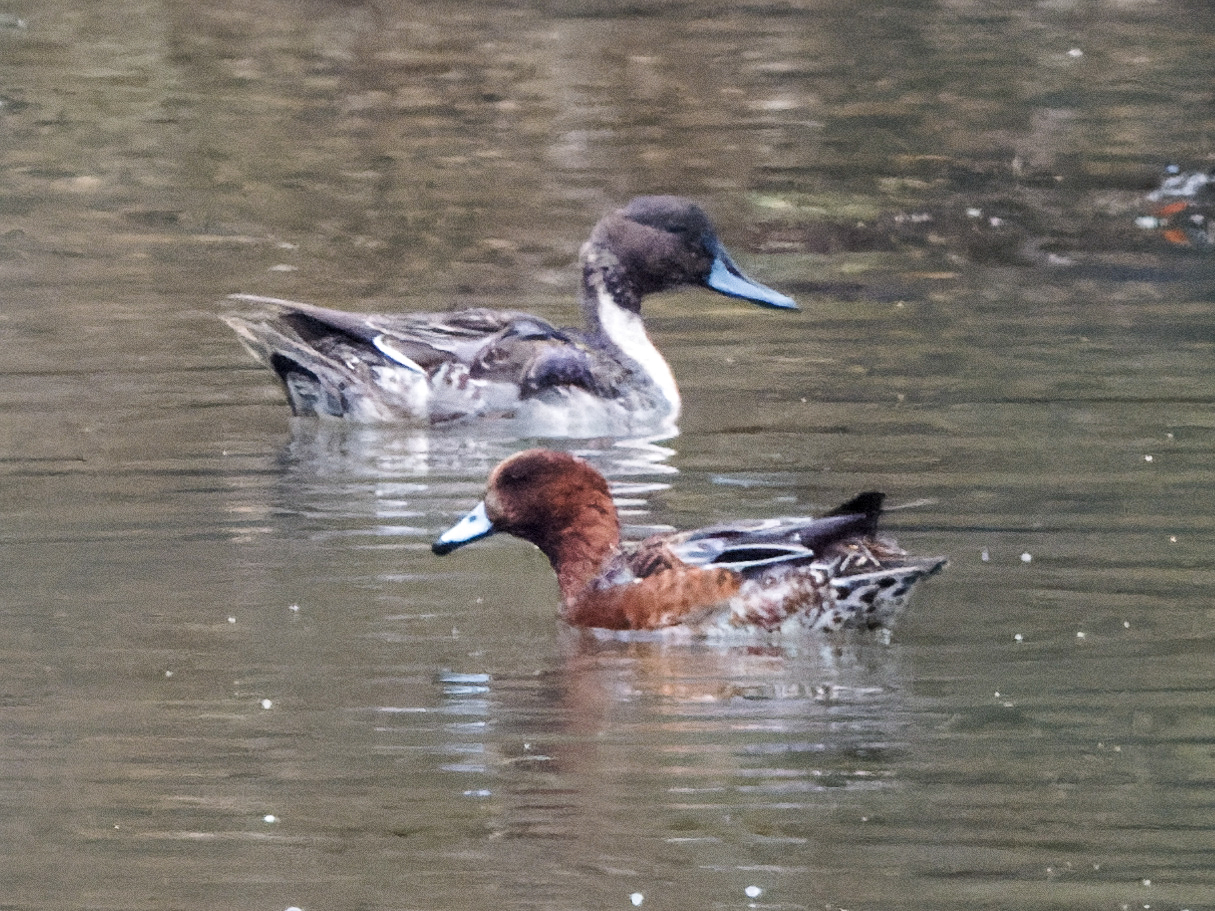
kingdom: Animalia
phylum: Chordata
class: Aves
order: Anseriformes
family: Anatidae
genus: Anas
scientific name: Anas acuta
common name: Northern pintail
